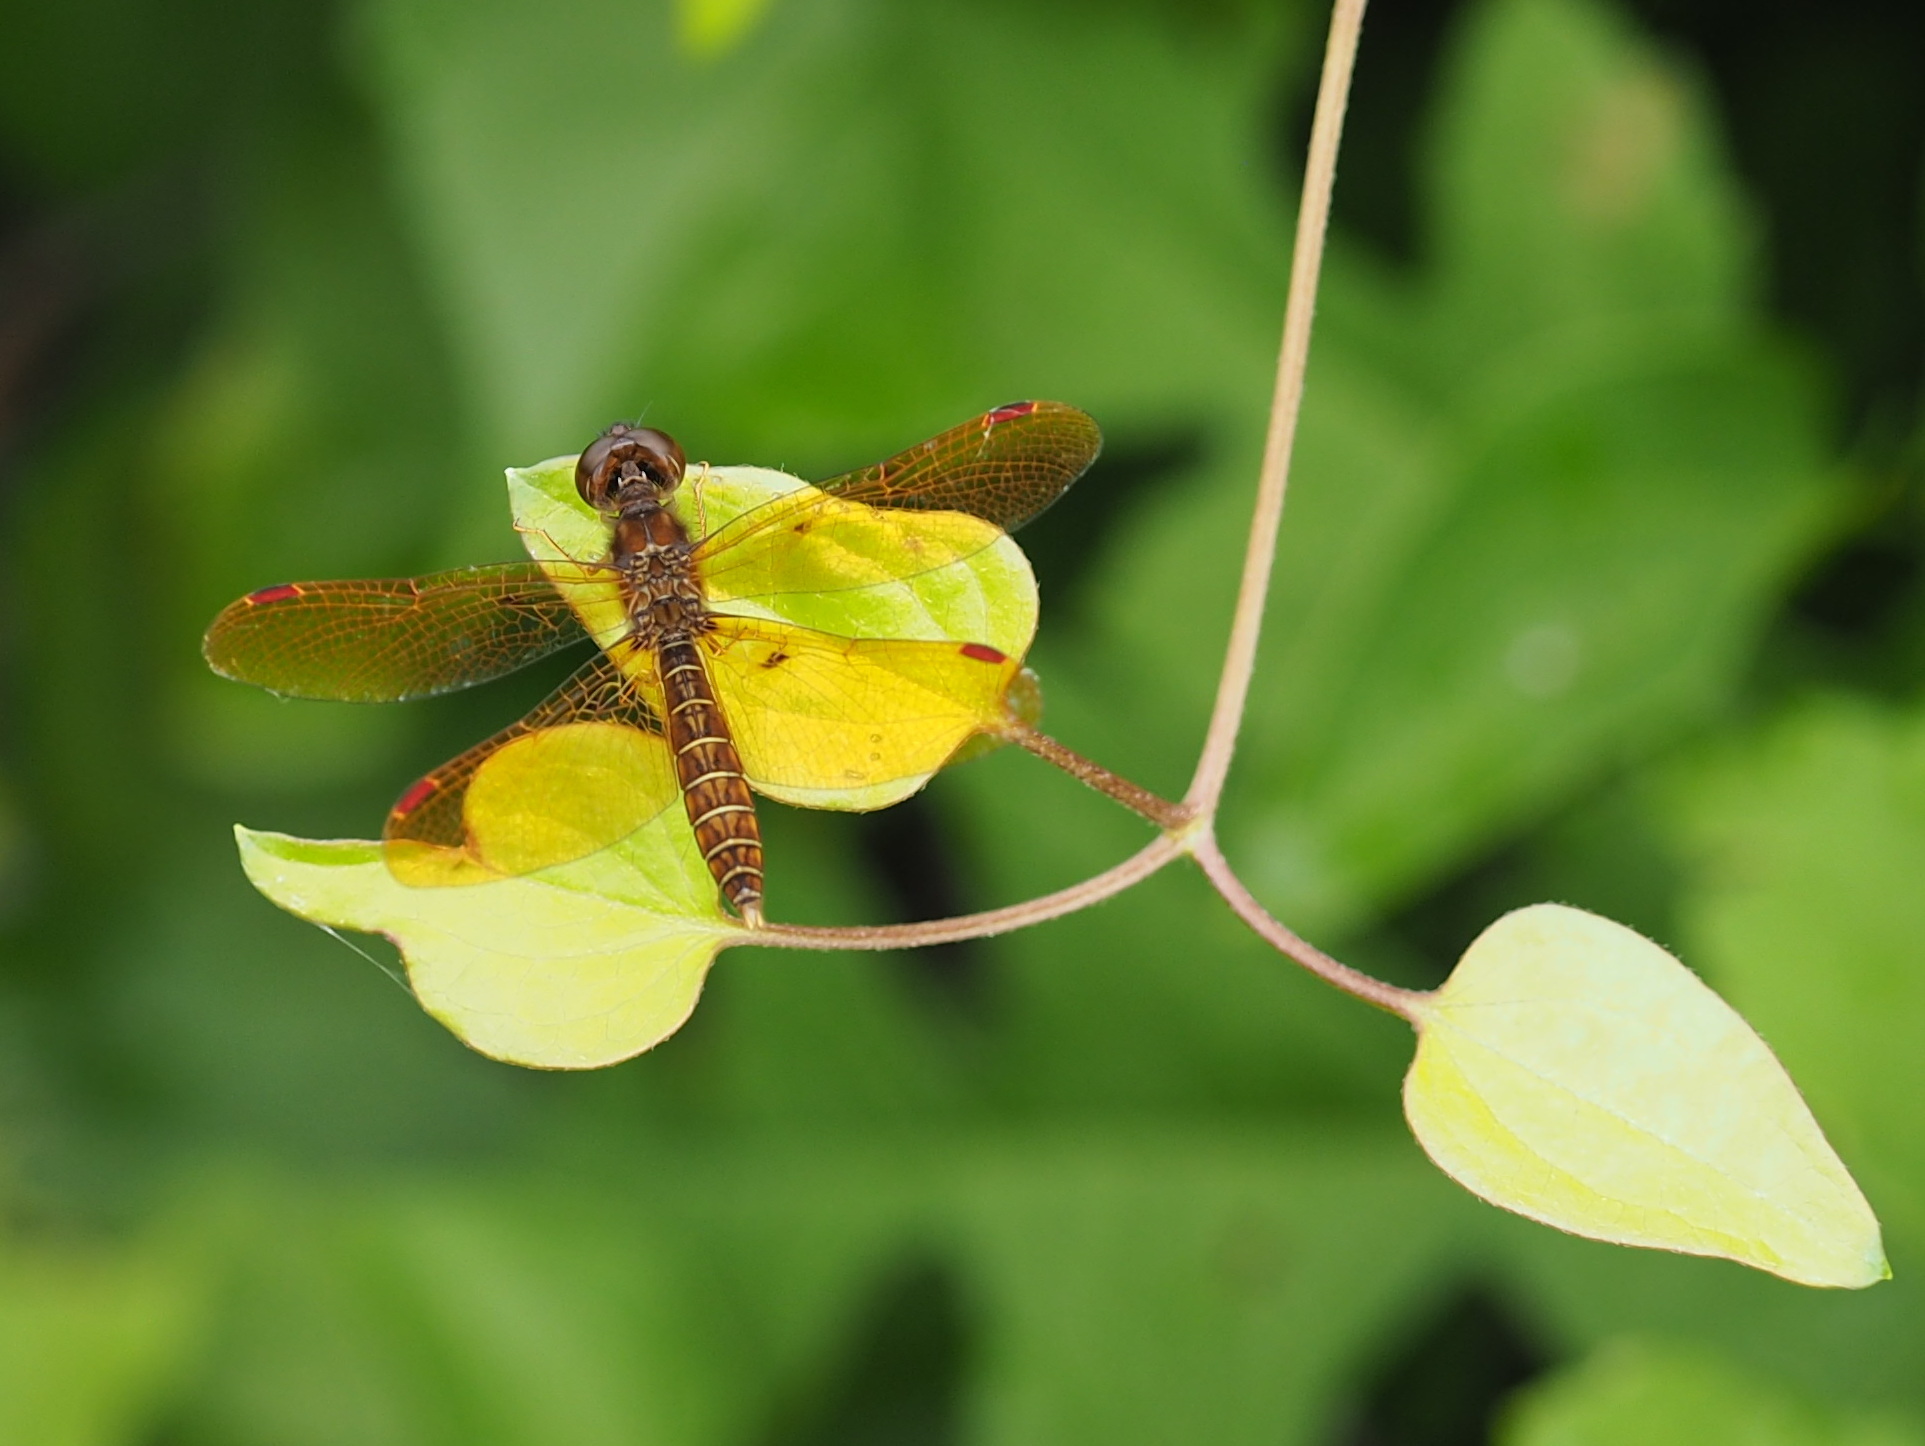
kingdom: Animalia
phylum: Arthropoda
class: Insecta
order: Odonata
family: Libellulidae
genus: Perithemis
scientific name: Perithemis tenera
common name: Eastern amberwing
